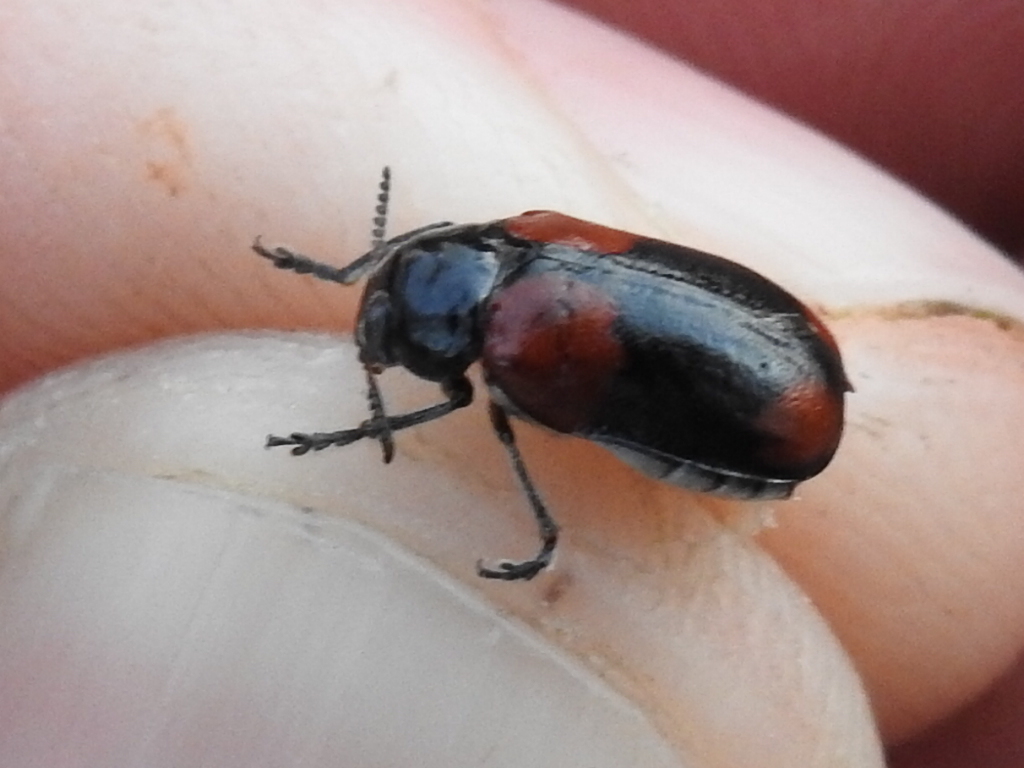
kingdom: Animalia
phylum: Arthropoda
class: Insecta
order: Coleoptera
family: Chrysomelidae
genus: Anomoea
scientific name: Anomoea rufifrons
